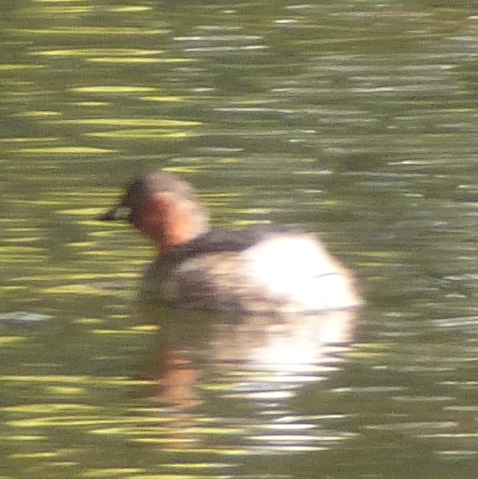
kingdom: Animalia
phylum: Chordata
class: Aves
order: Podicipediformes
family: Podicipedidae
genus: Tachybaptus
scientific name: Tachybaptus ruficollis
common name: Little grebe
